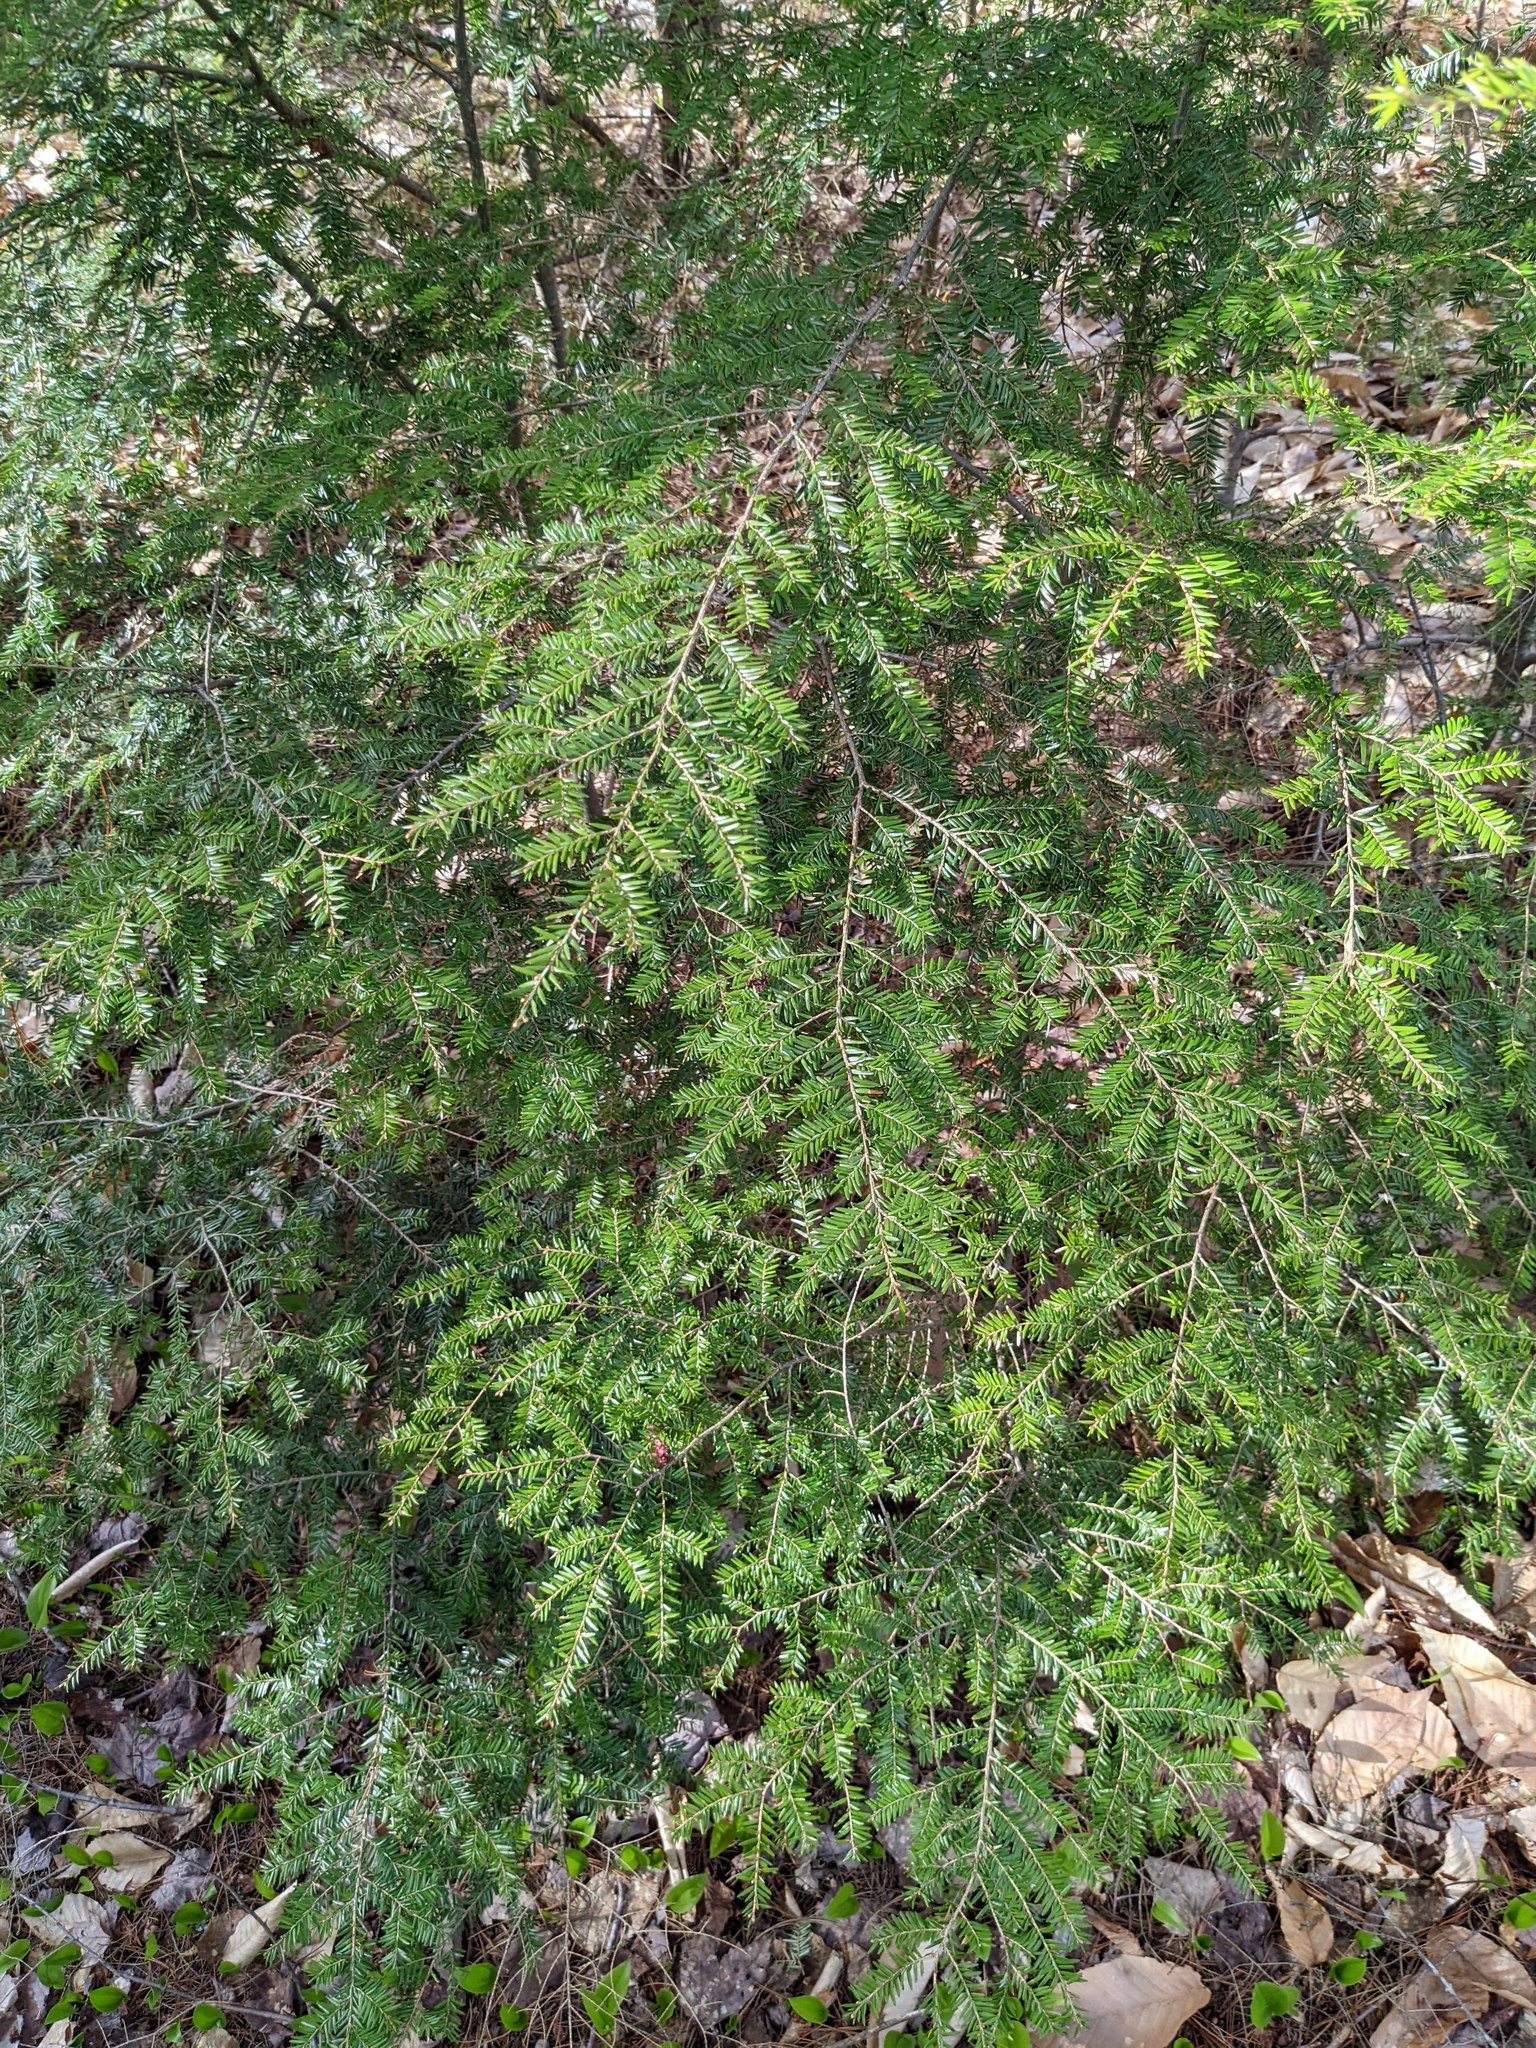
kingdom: Plantae
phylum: Tracheophyta
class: Pinopsida
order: Pinales
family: Pinaceae
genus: Tsuga
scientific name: Tsuga canadensis
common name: Eastern hemlock
